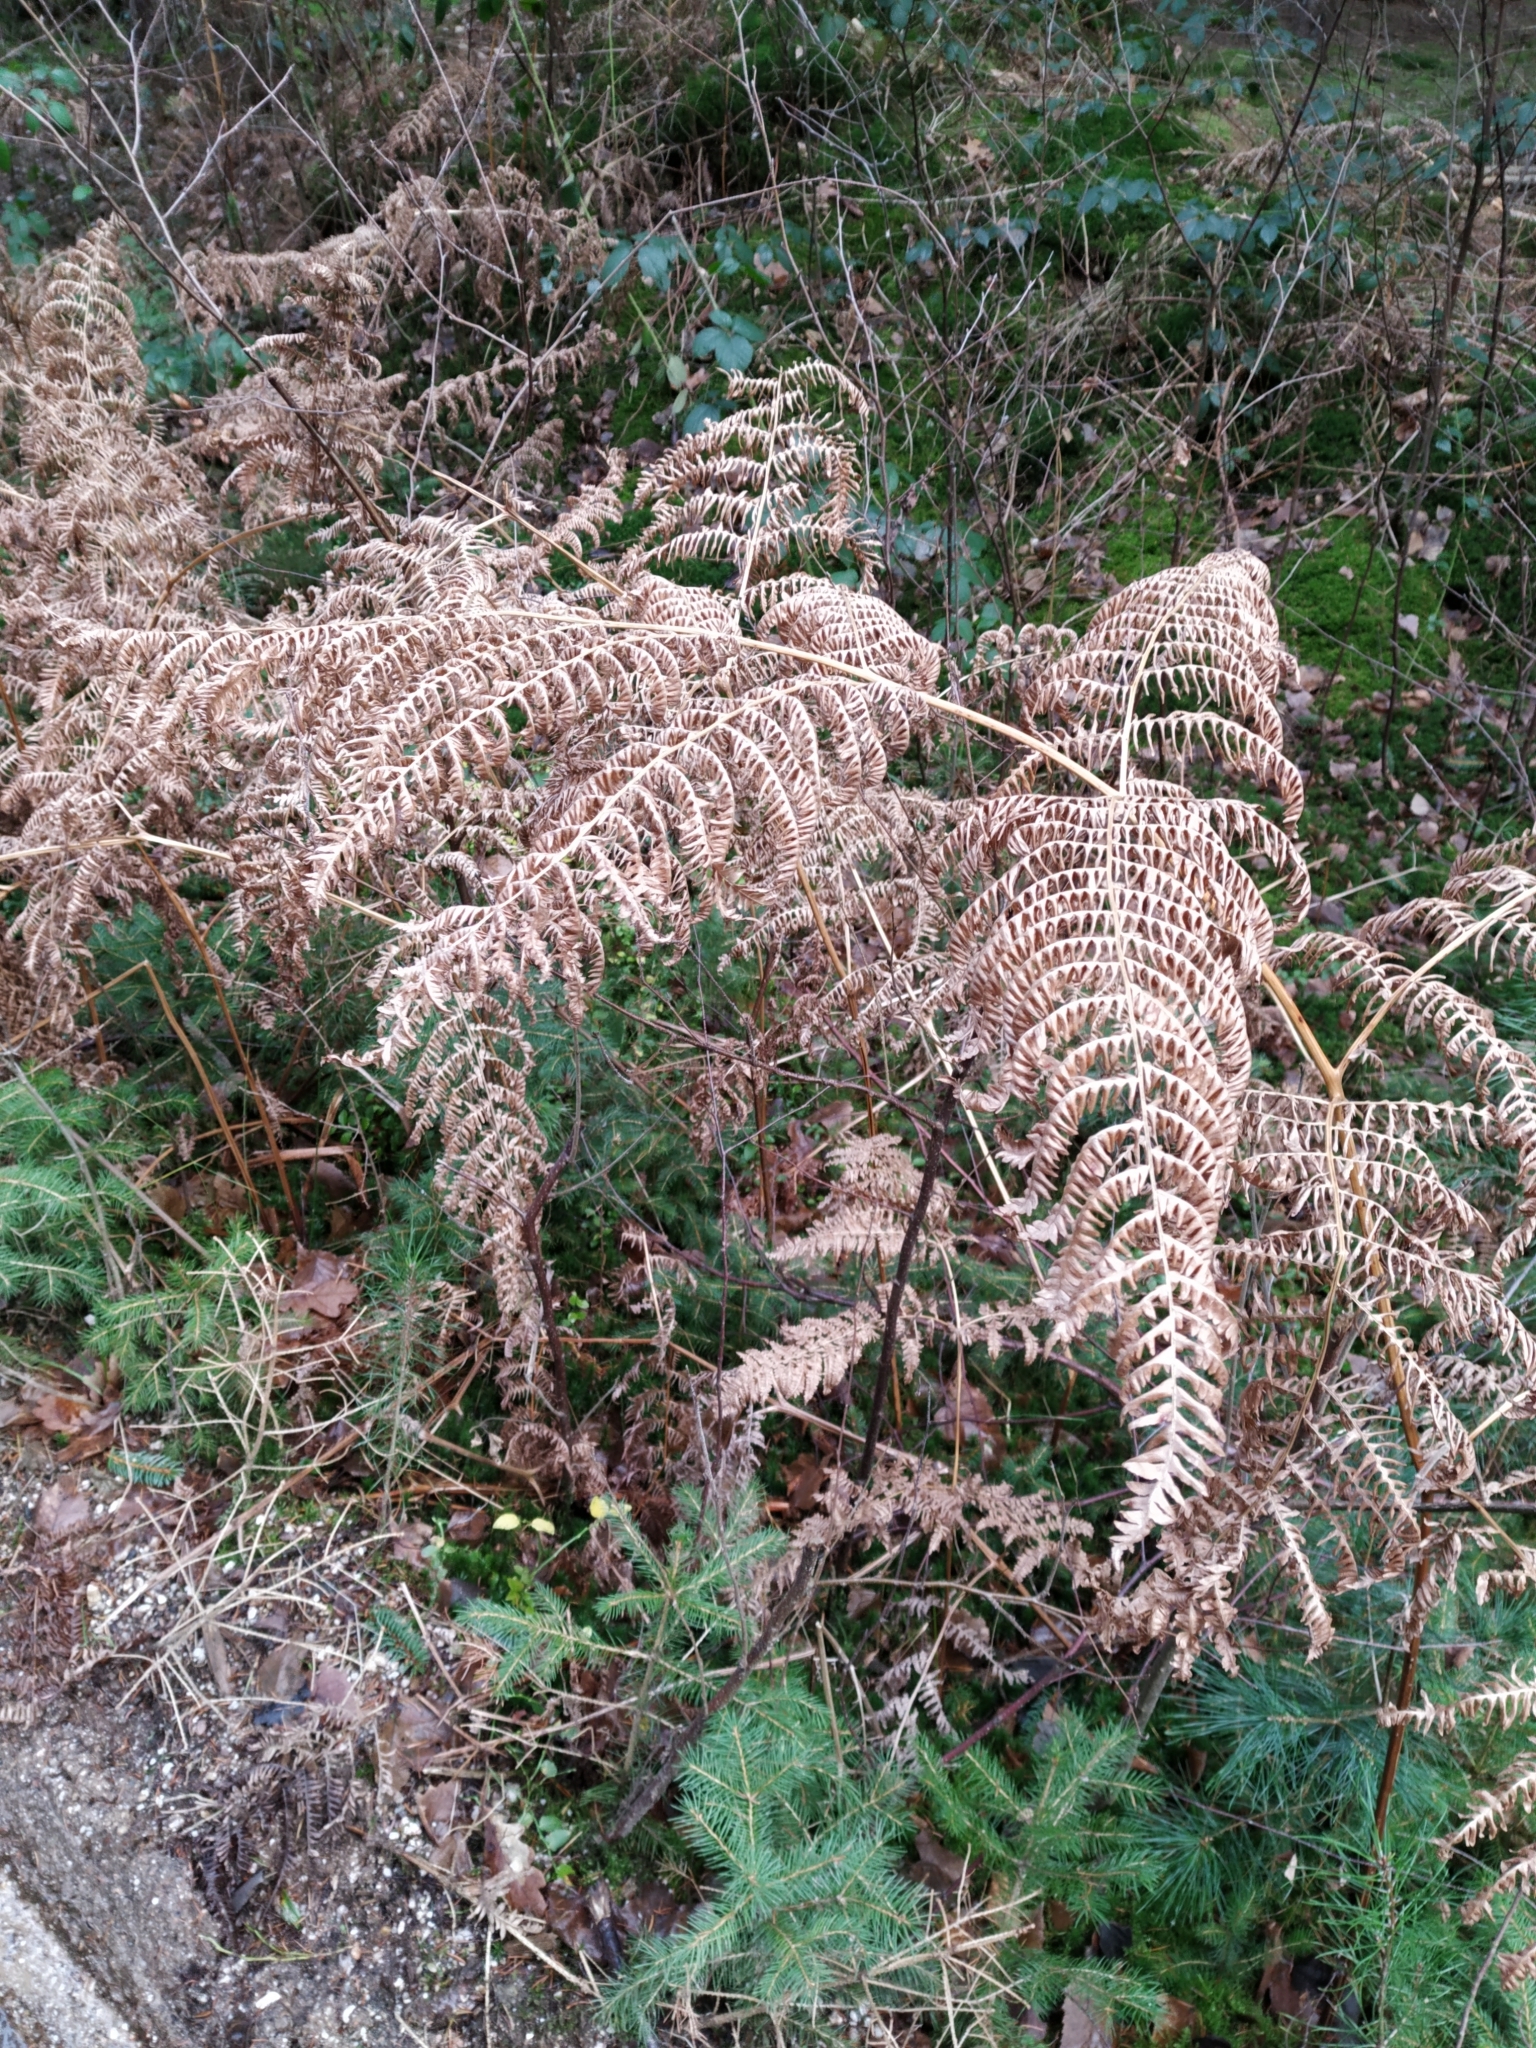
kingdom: Plantae
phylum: Tracheophyta
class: Polypodiopsida
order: Polypodiales
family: Dennstaedtiaceae
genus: Pteridium
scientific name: Pteridium aquilinum
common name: Bracken
